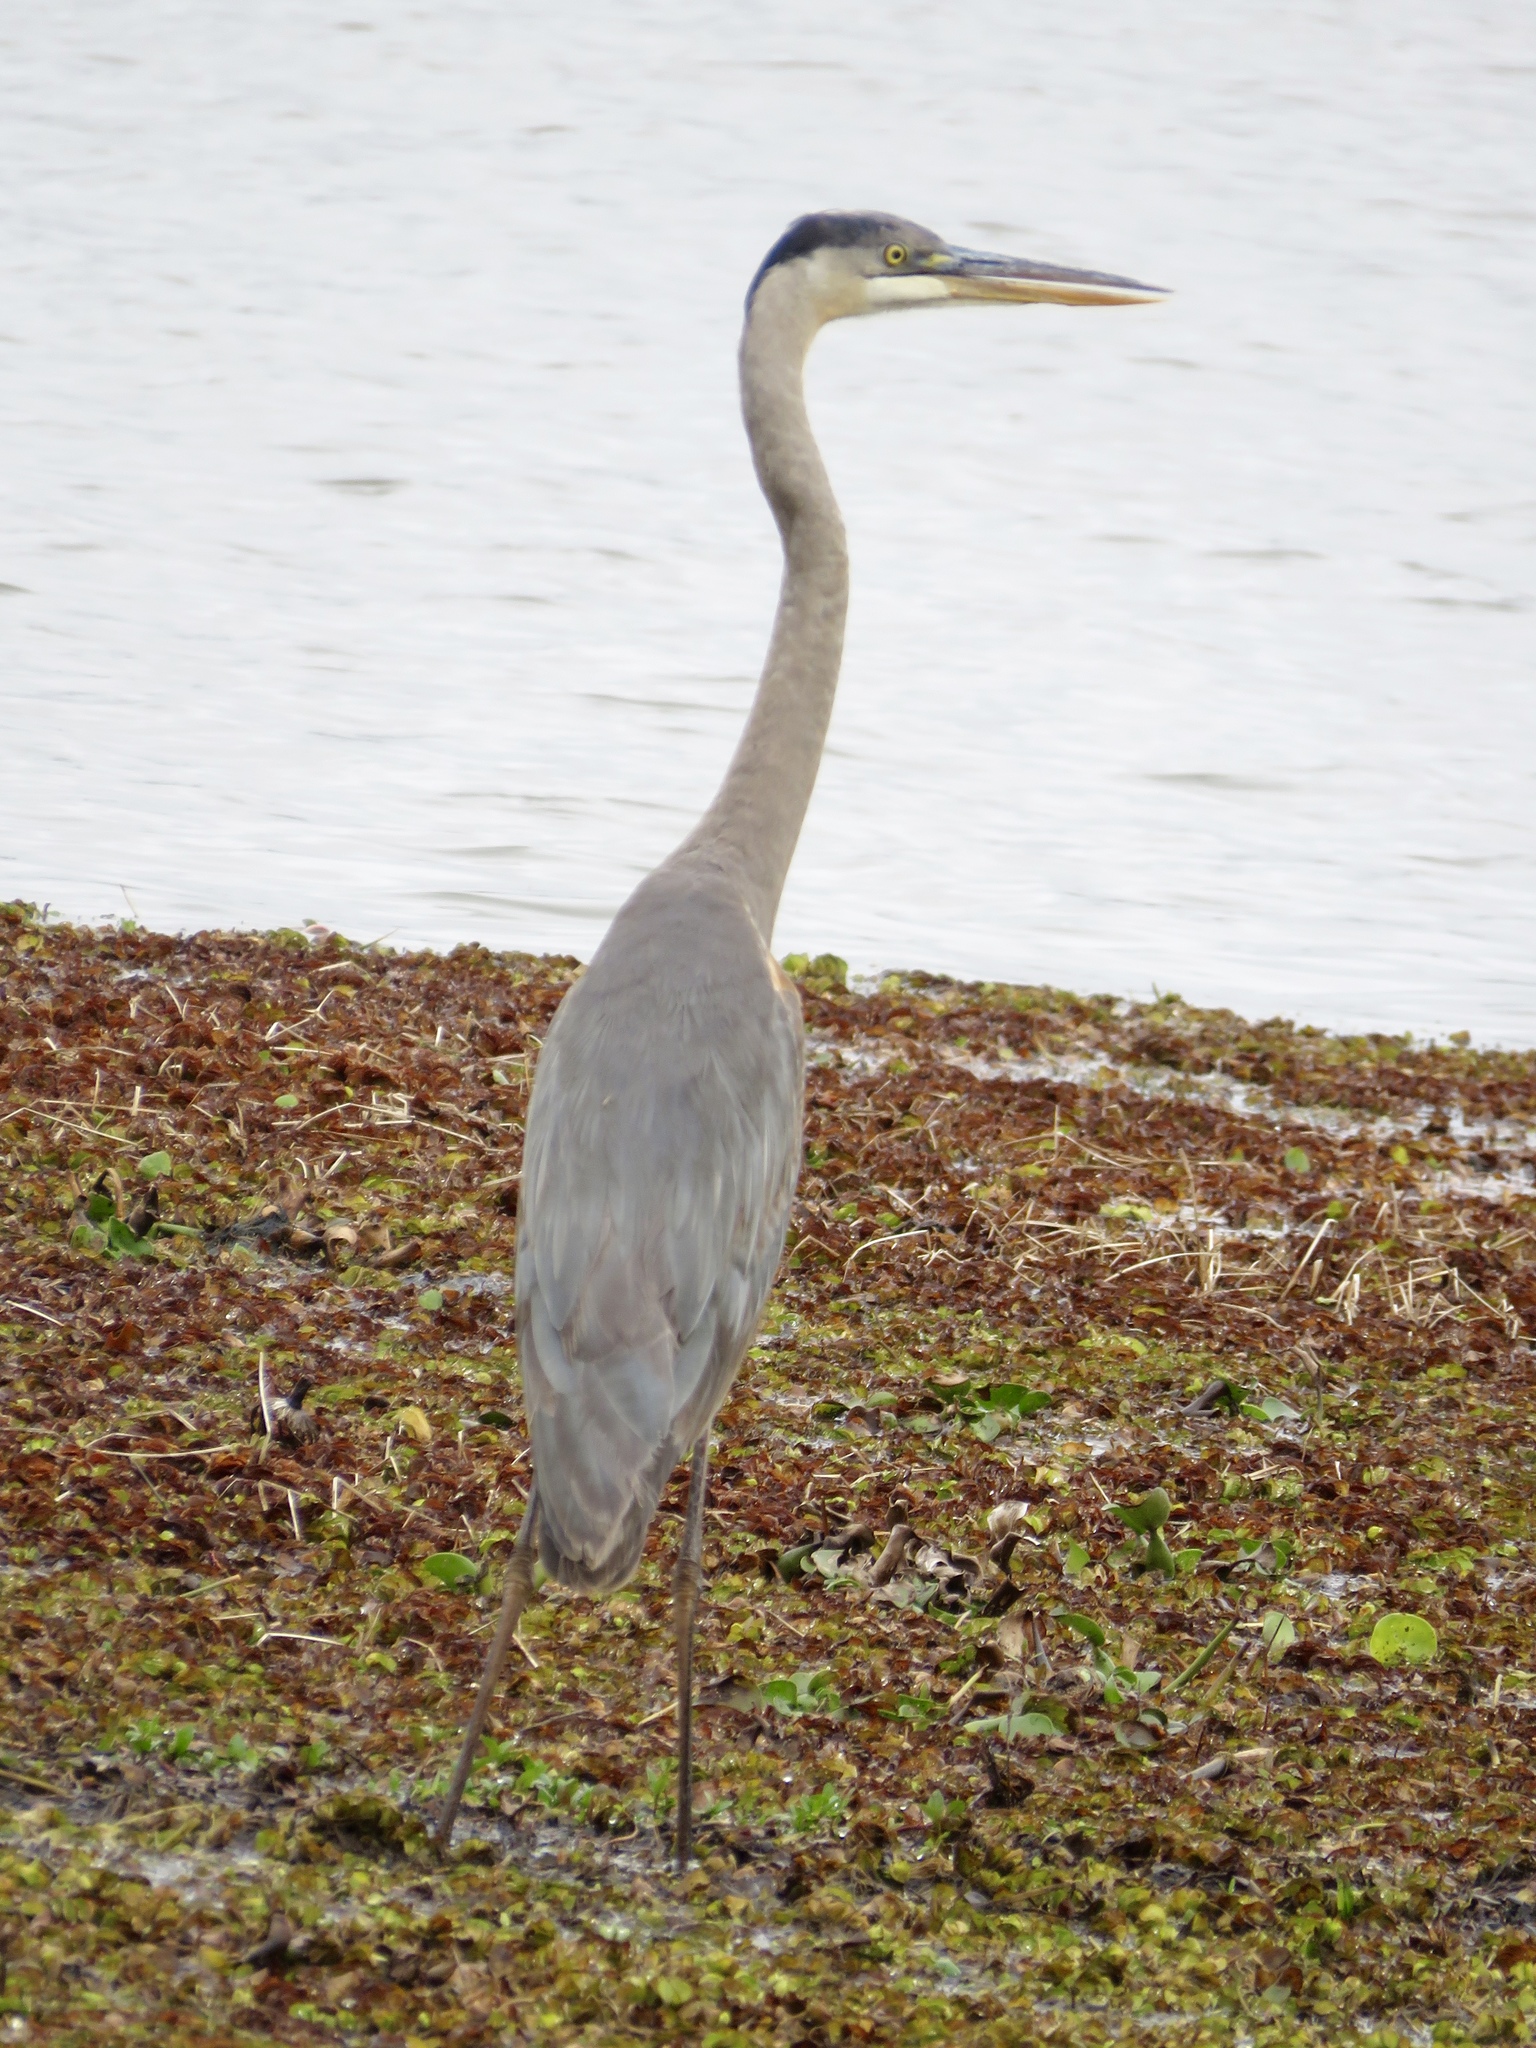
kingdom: Animalia
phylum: Chordata
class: Aves
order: Pelecaniformes
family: Ardeidae
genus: Ardea
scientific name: Ardea herodias
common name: Great blue heron
